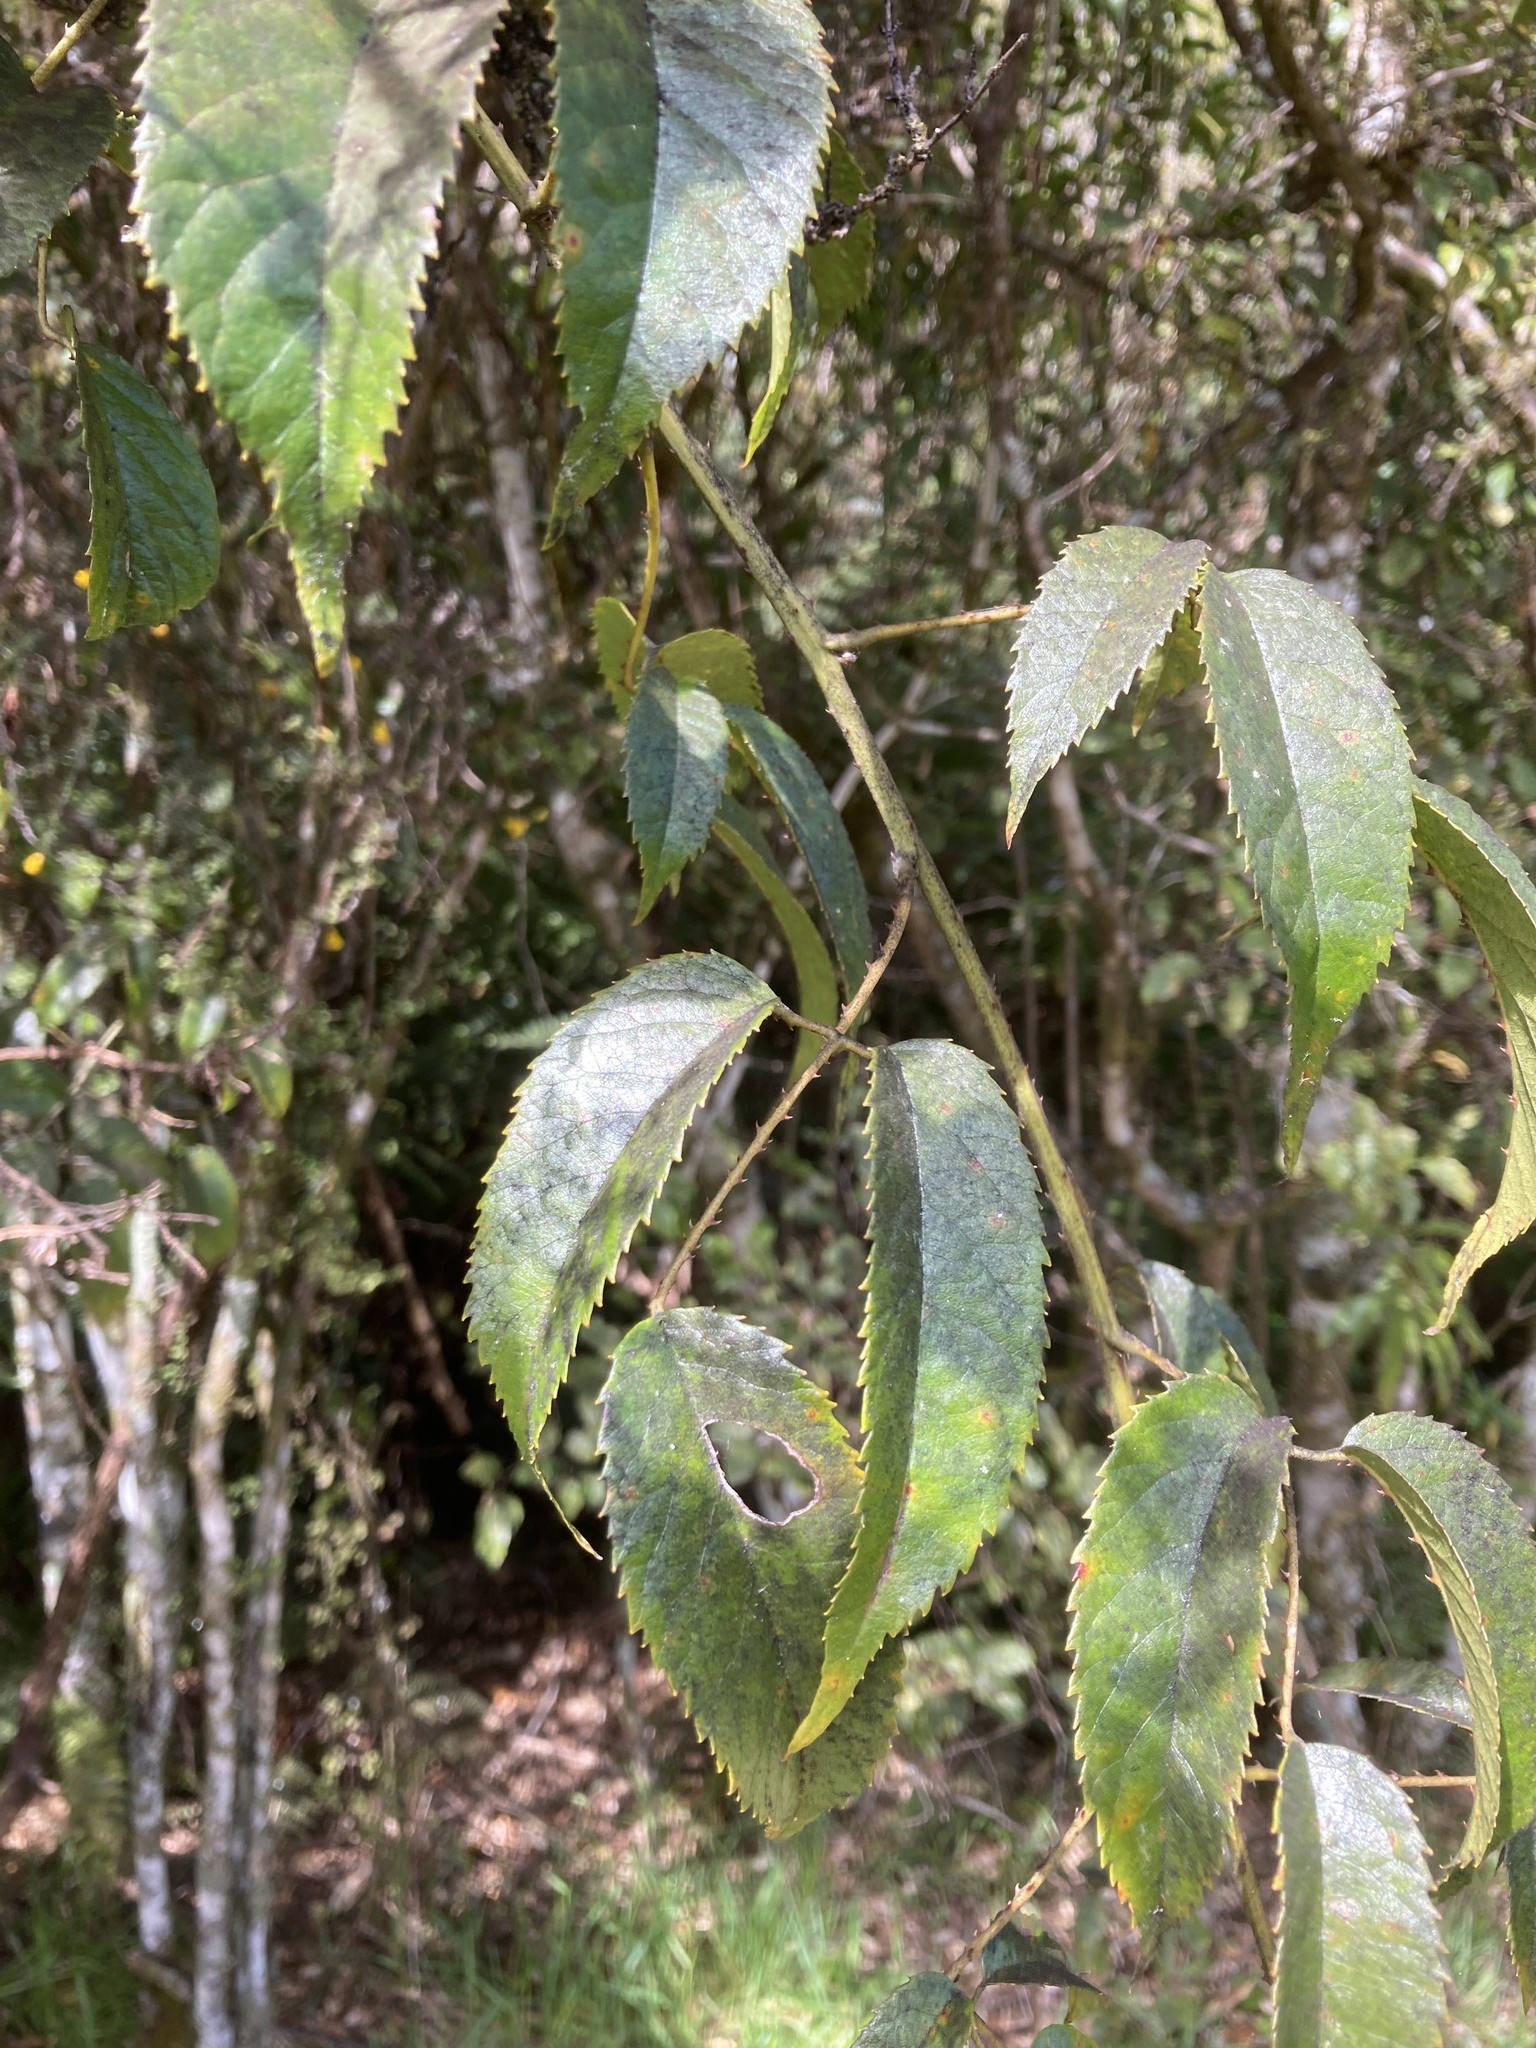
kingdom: Plantae
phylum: Tracheophyta
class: Magnoliopsida
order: Rosales
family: Rosaceae
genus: Rubus
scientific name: Rubus cissoides
